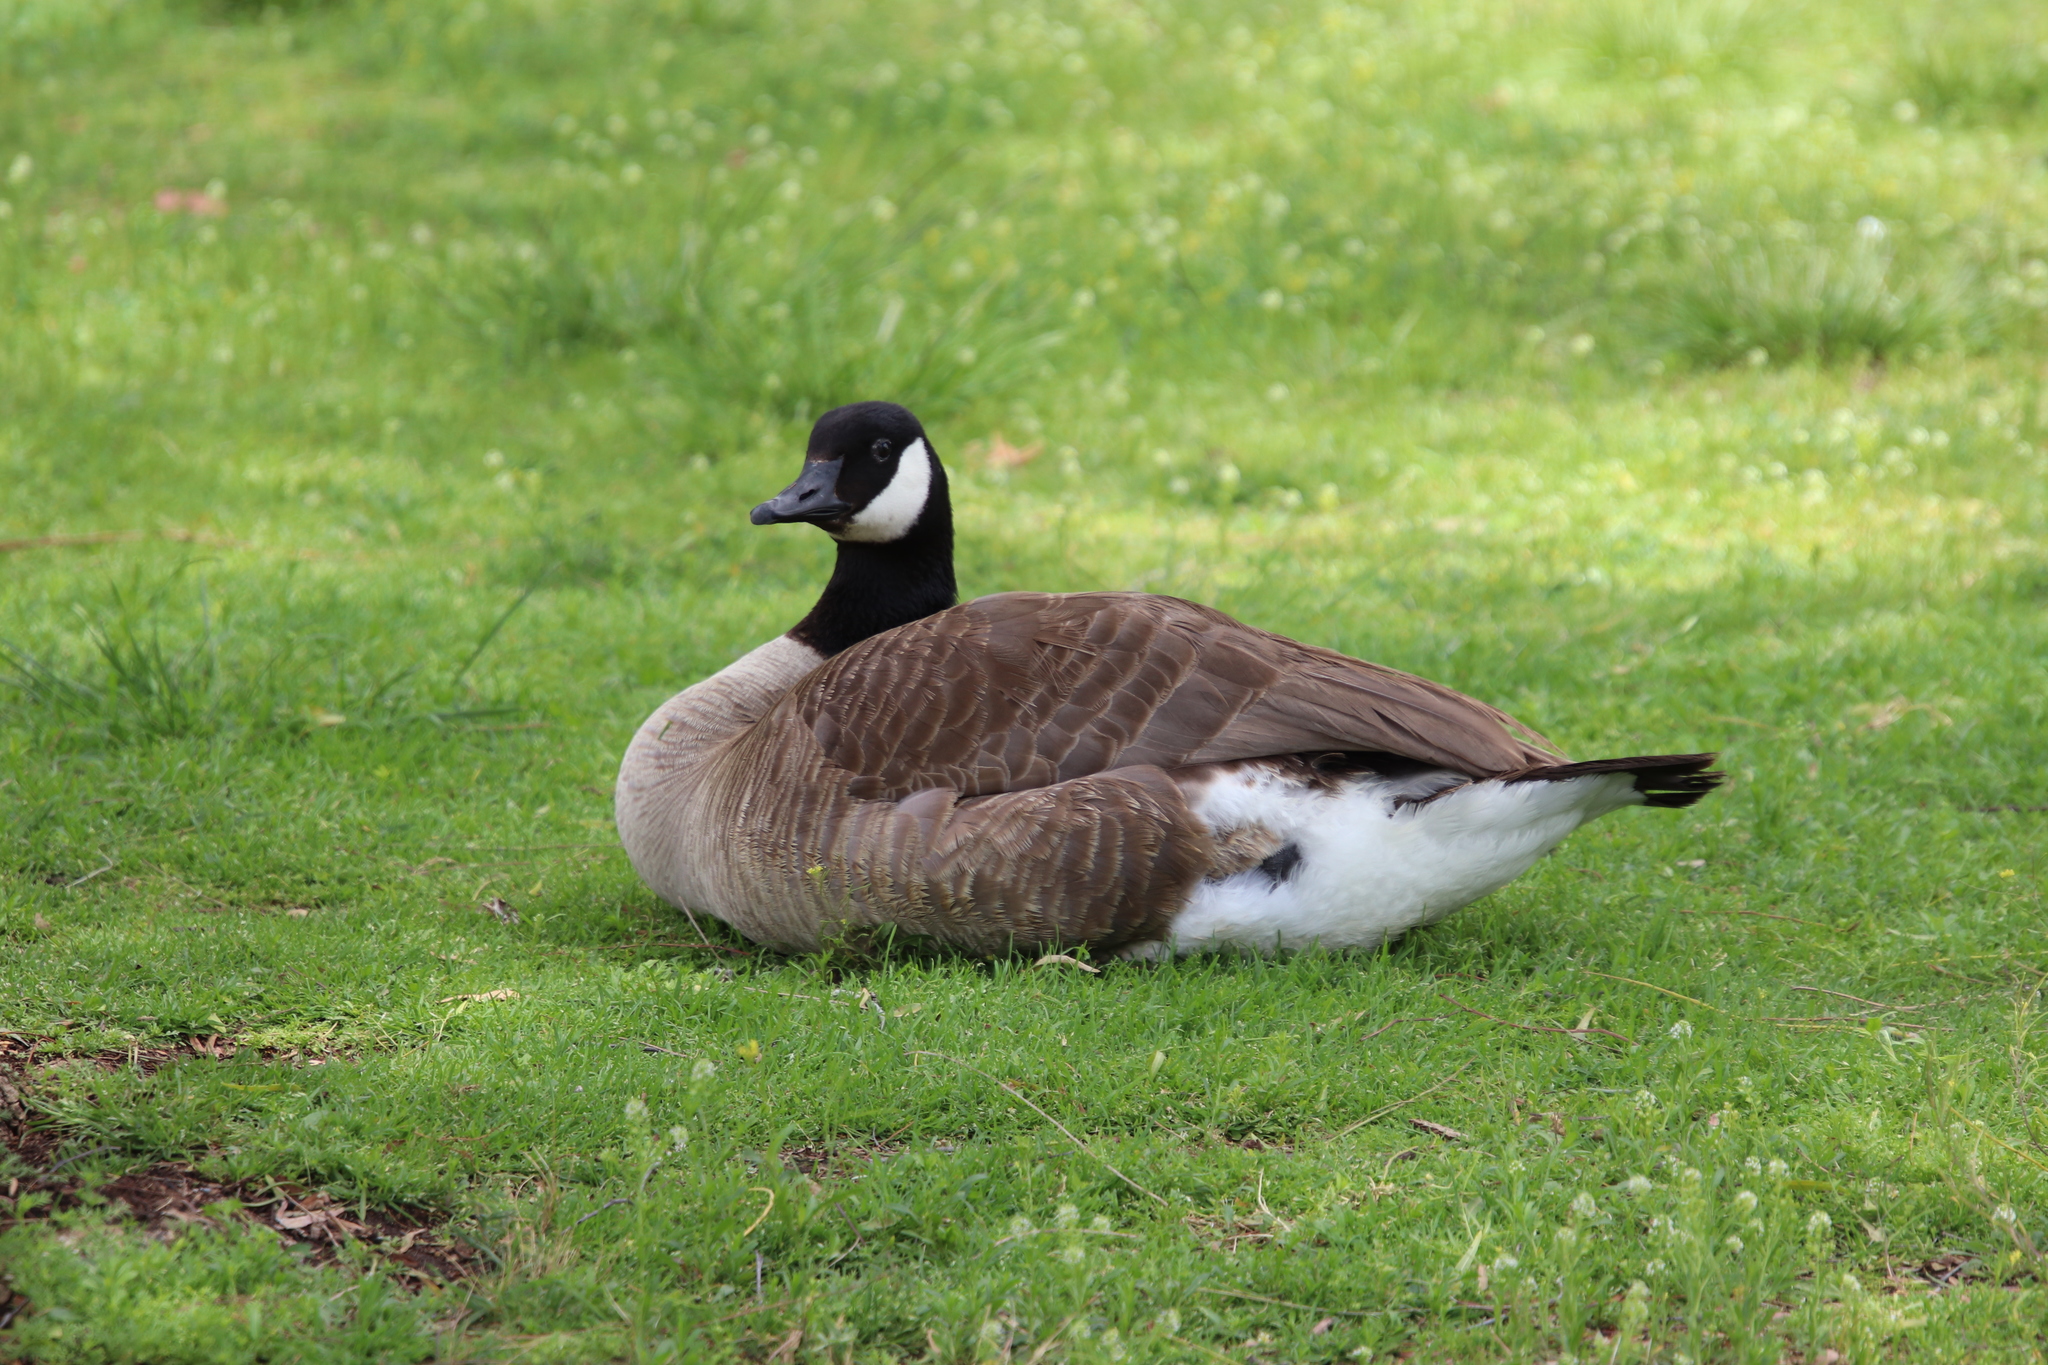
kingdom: Animalia
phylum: Chordata
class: Aves
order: Anseriformes
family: Anatidae
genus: Branta
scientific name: Branta canadensis
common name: Canada goose
